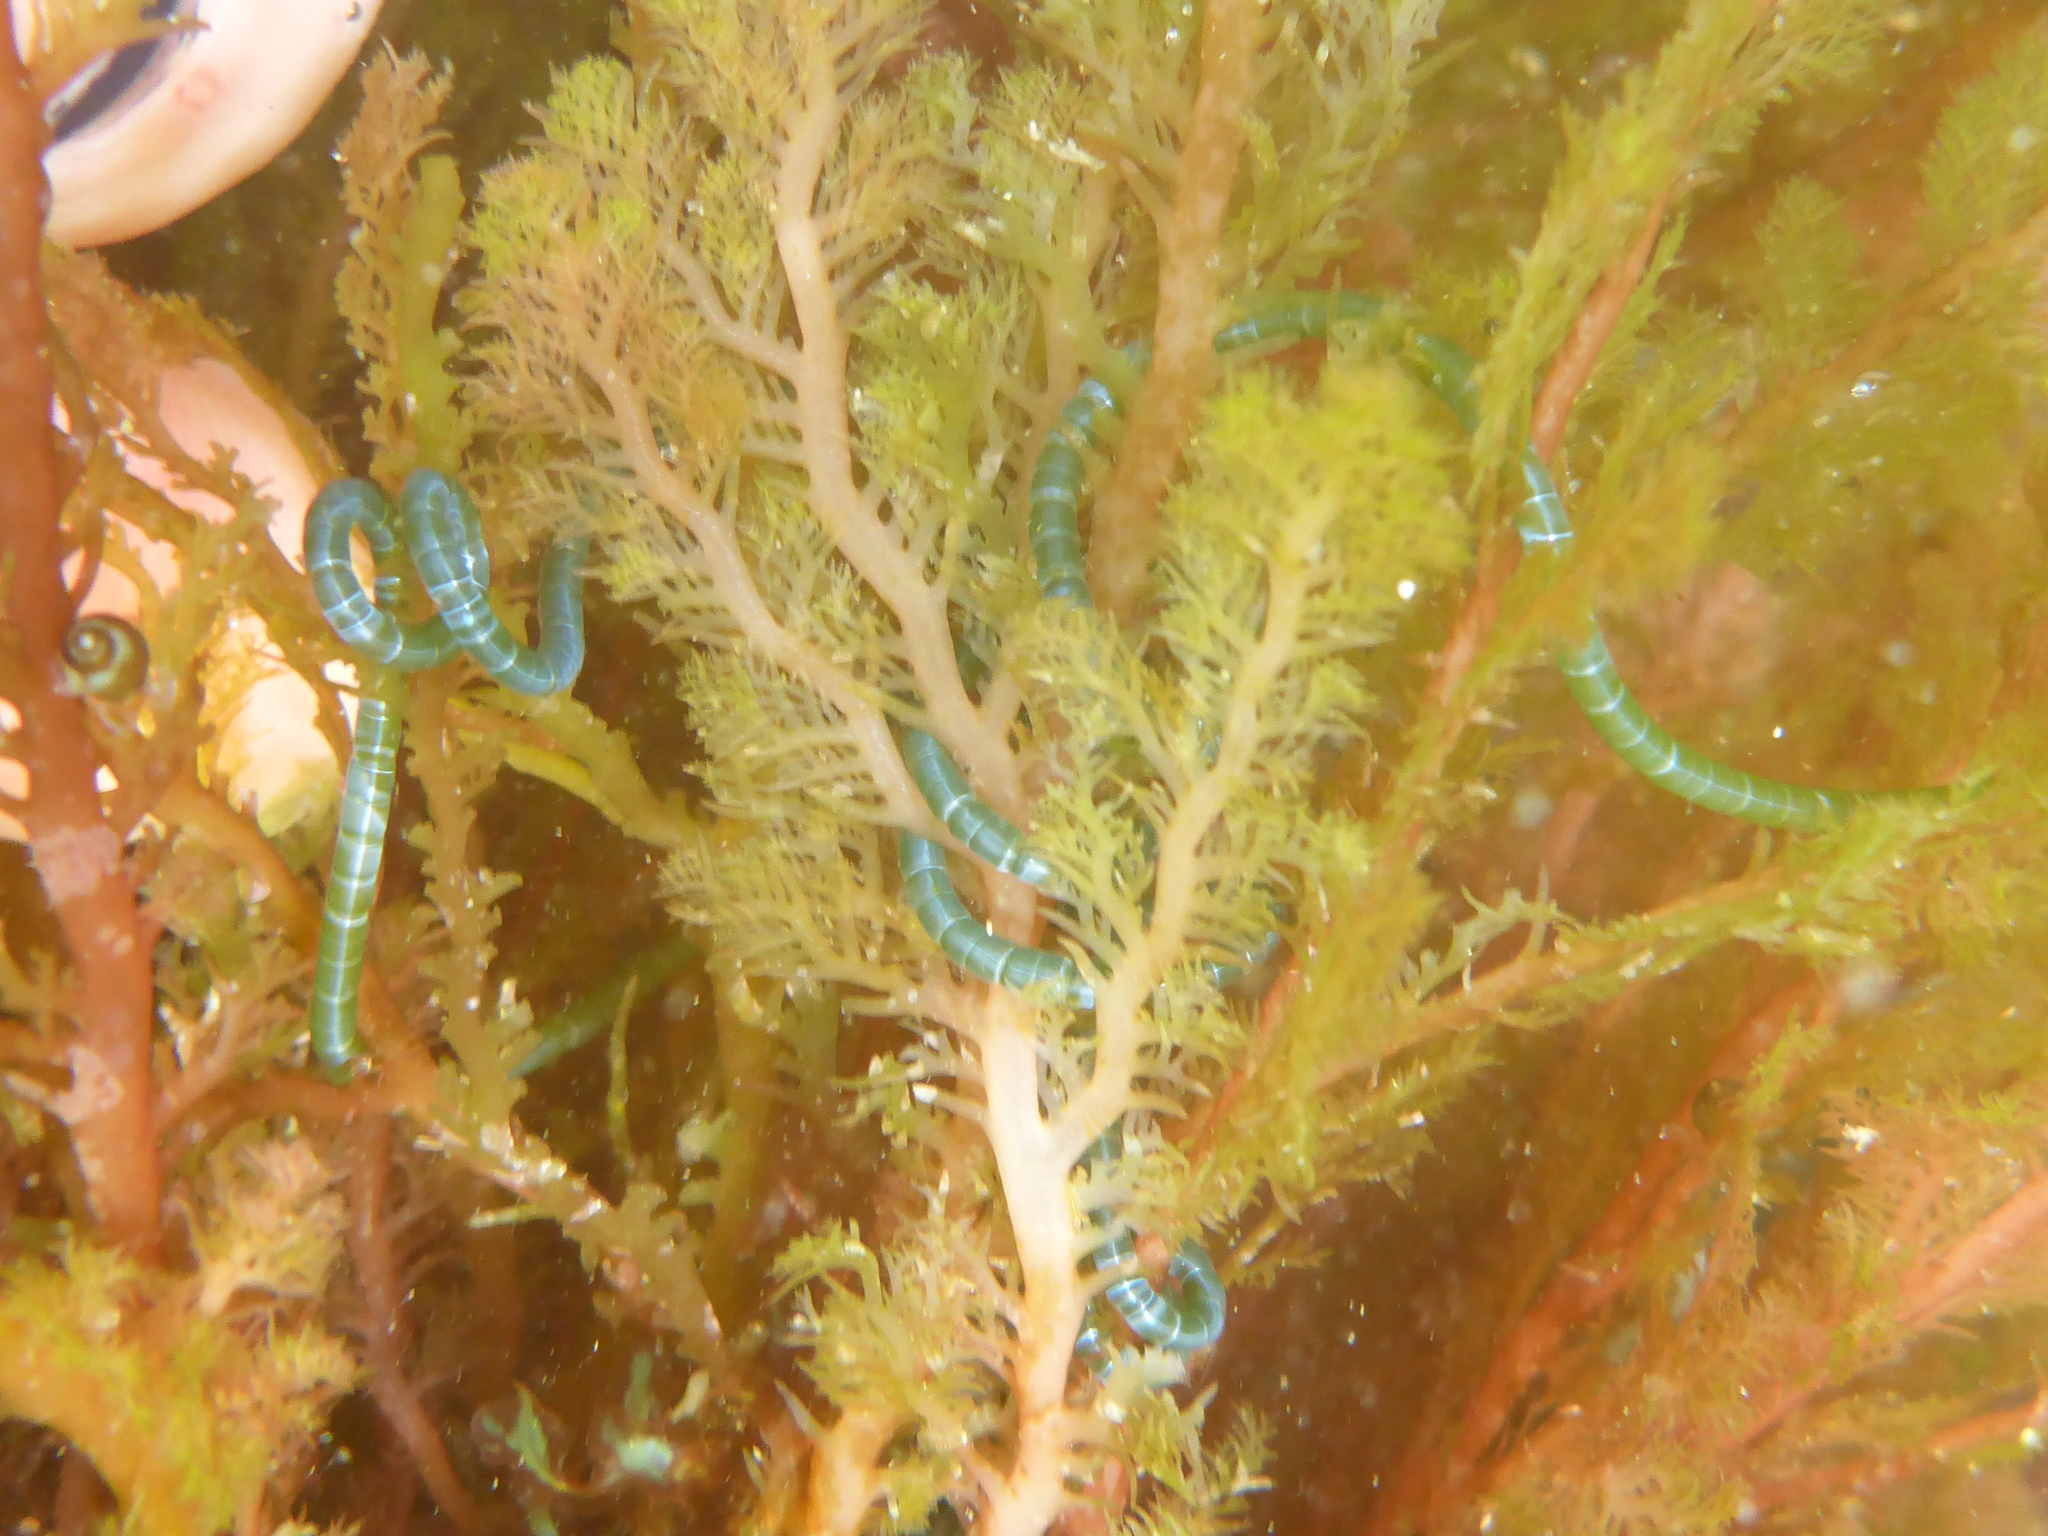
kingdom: Plantae
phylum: Chlorophyta
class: Ulvophyceae
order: Cladophorales
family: Cladophoraceae
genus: Chaetomorpha
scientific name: Chaetomorpha spiralis
